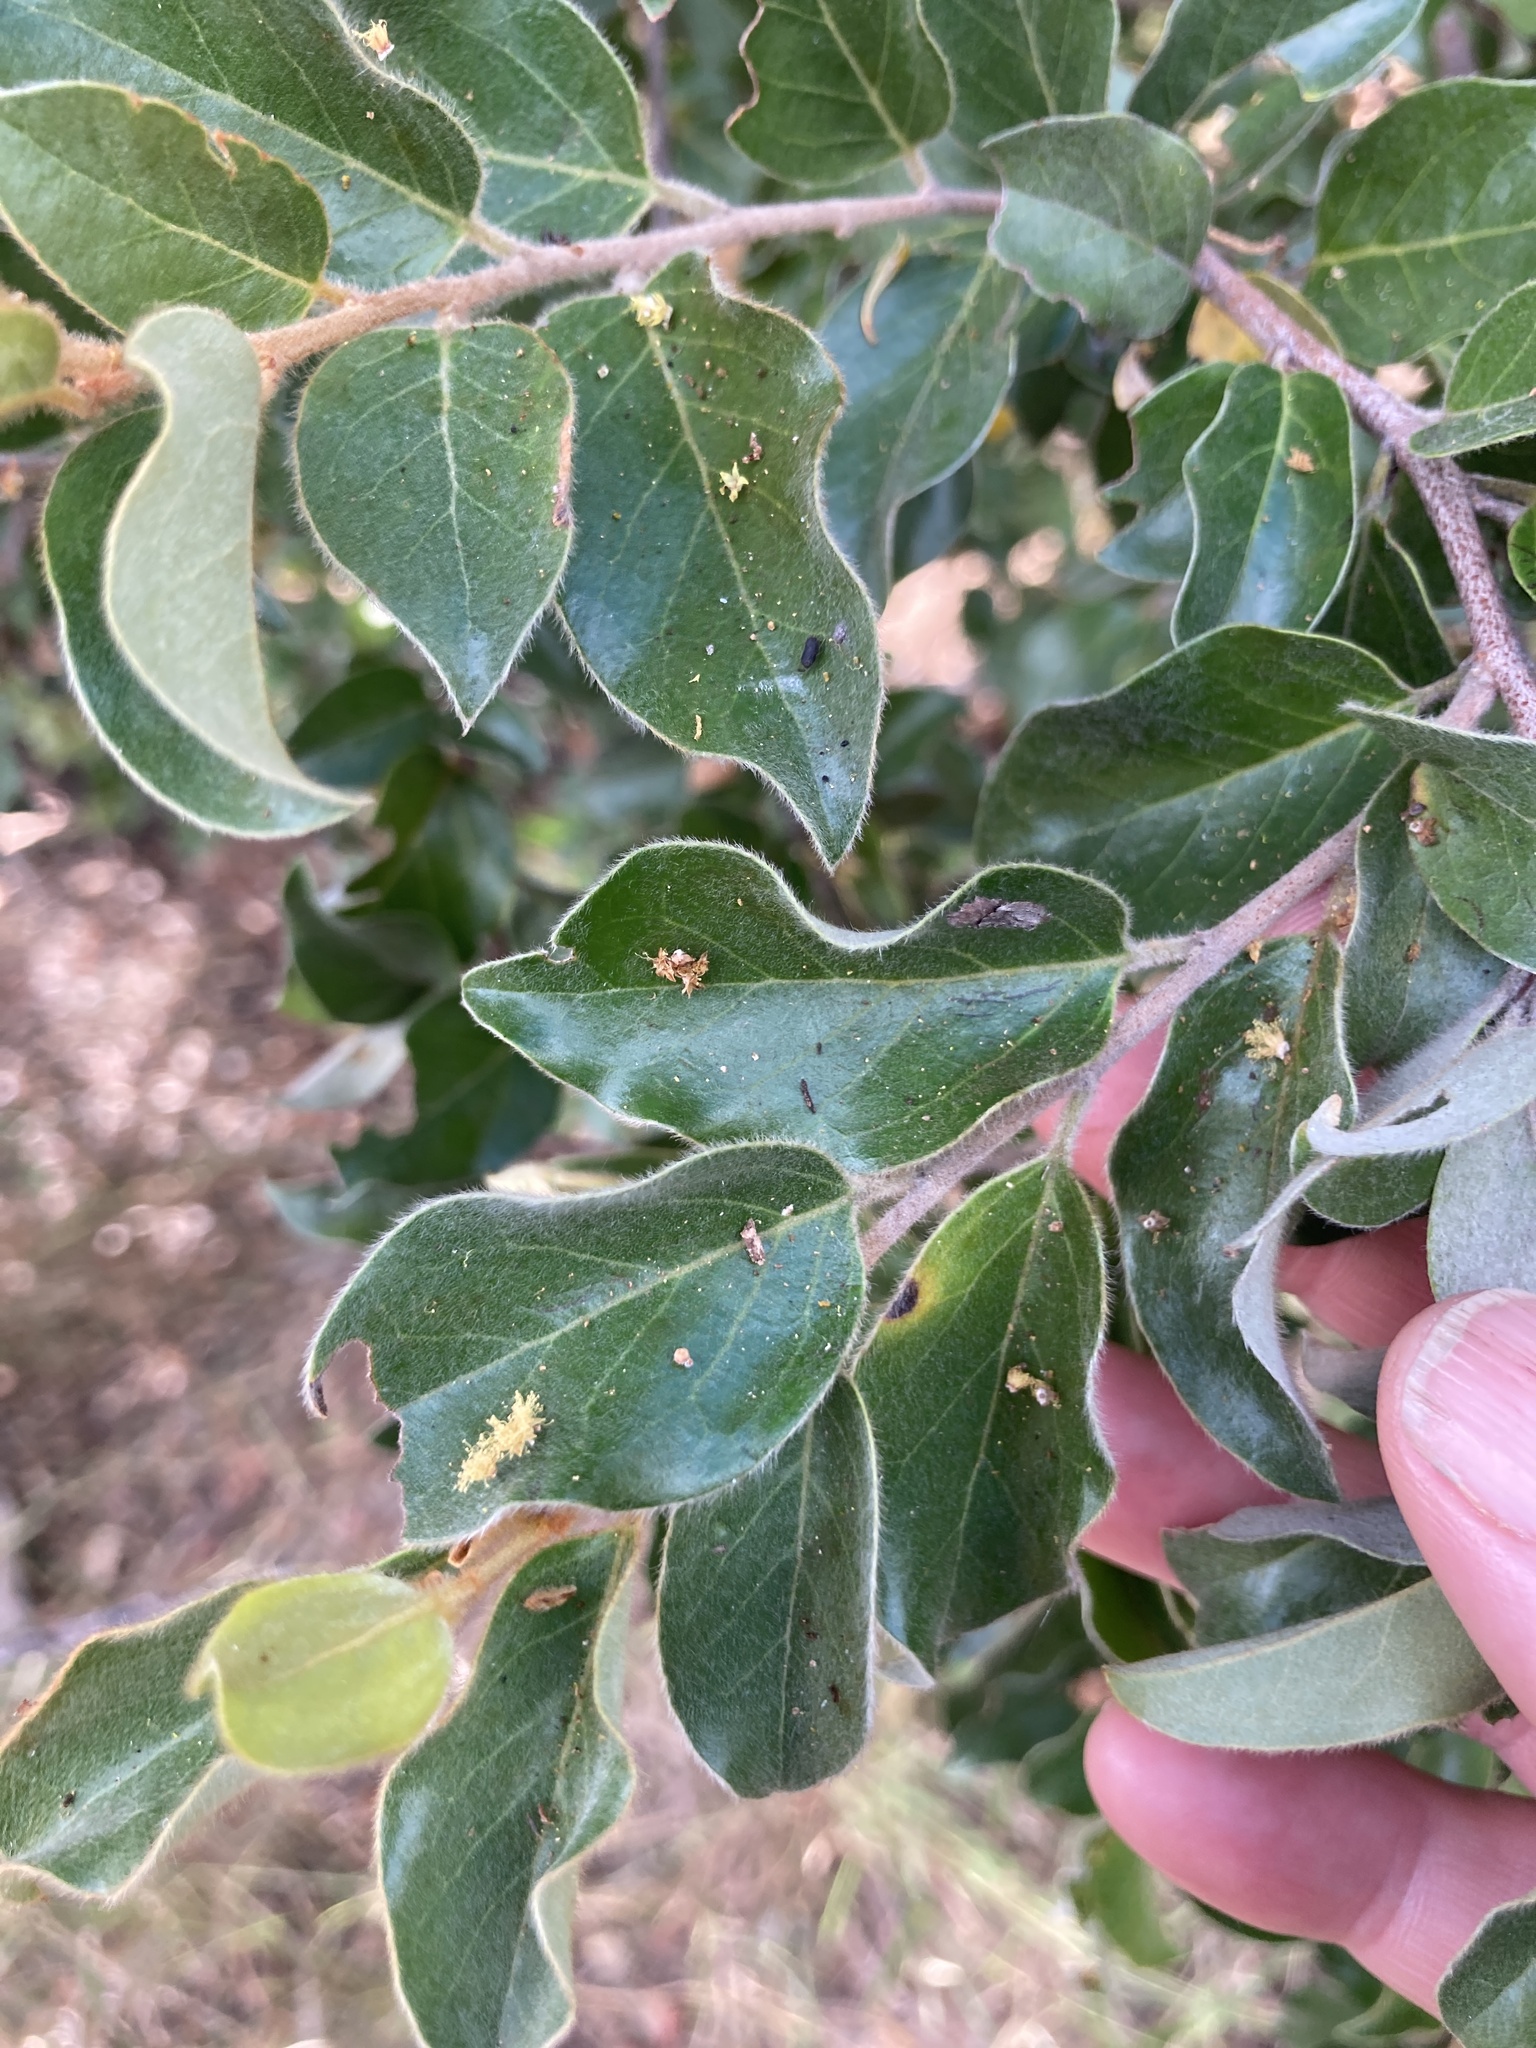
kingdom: Plantae
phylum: Tracheophyta
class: Magnoliopsida
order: Malpighiales
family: Picrodendraceae
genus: Petalostigma
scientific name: Petalostigma pubescens
